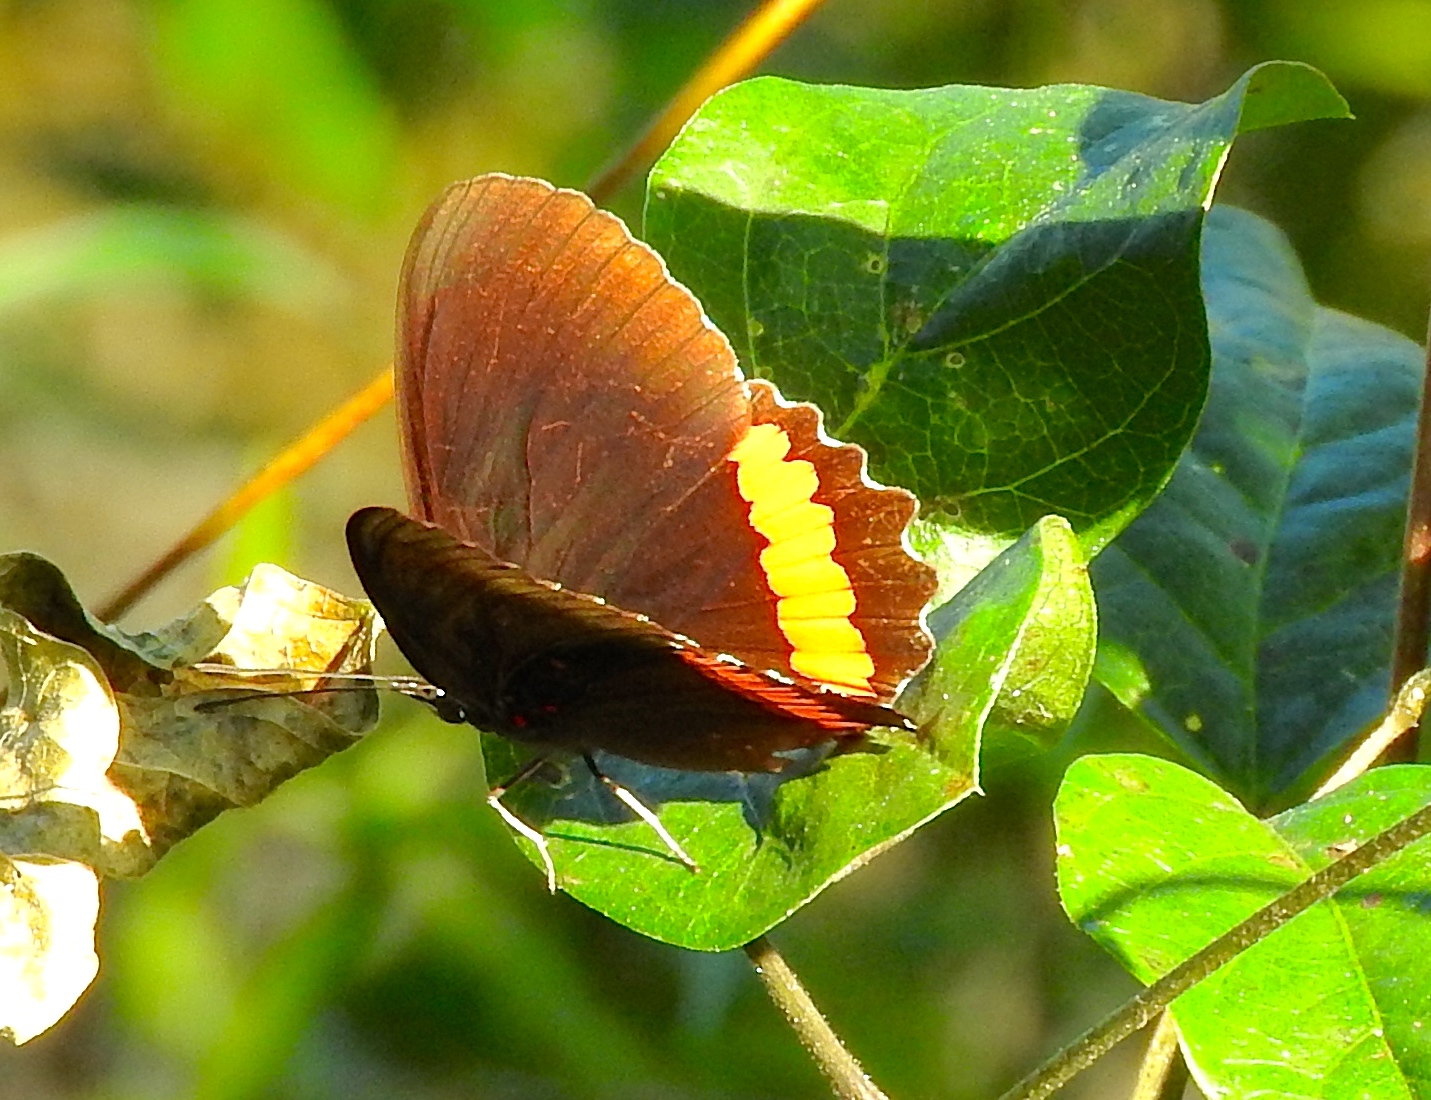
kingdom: Animalia
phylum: Arthropoda
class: Insecta
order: Lepidoptera
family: Nymphalidae
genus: Biblis
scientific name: Biblis aganisa
